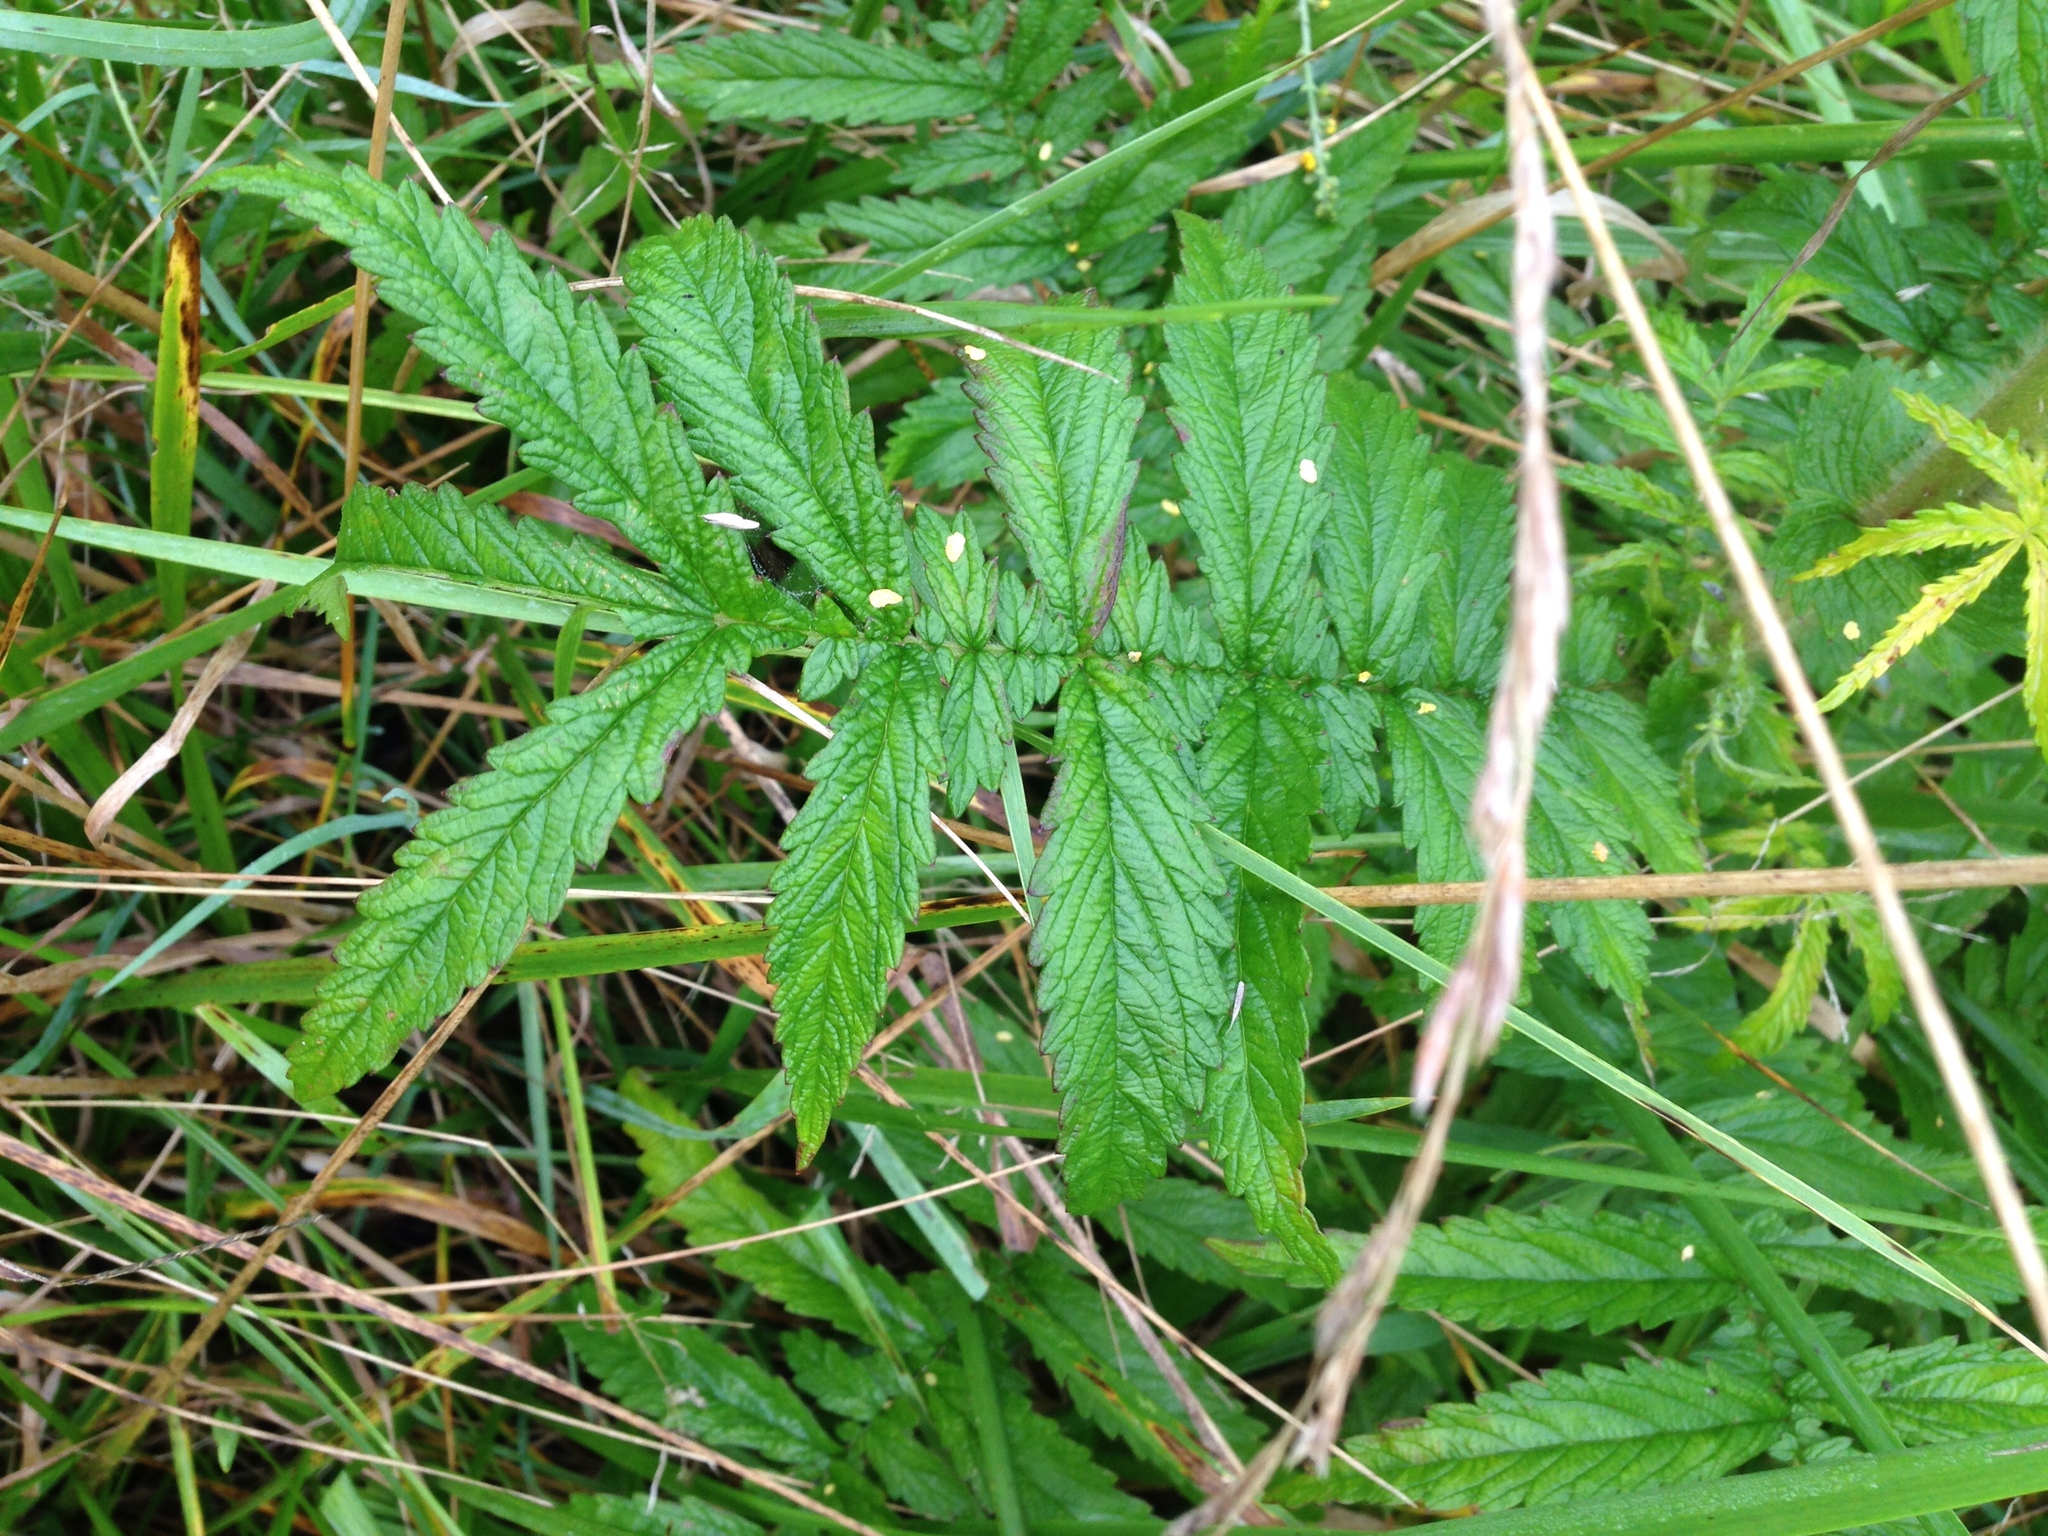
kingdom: Plantae
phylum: Tracheophyta
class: Magnoliopsida
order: Rosales
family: Rosaceae
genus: Agrimonia
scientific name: Agrimonia parviflora
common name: Harvest-lice
